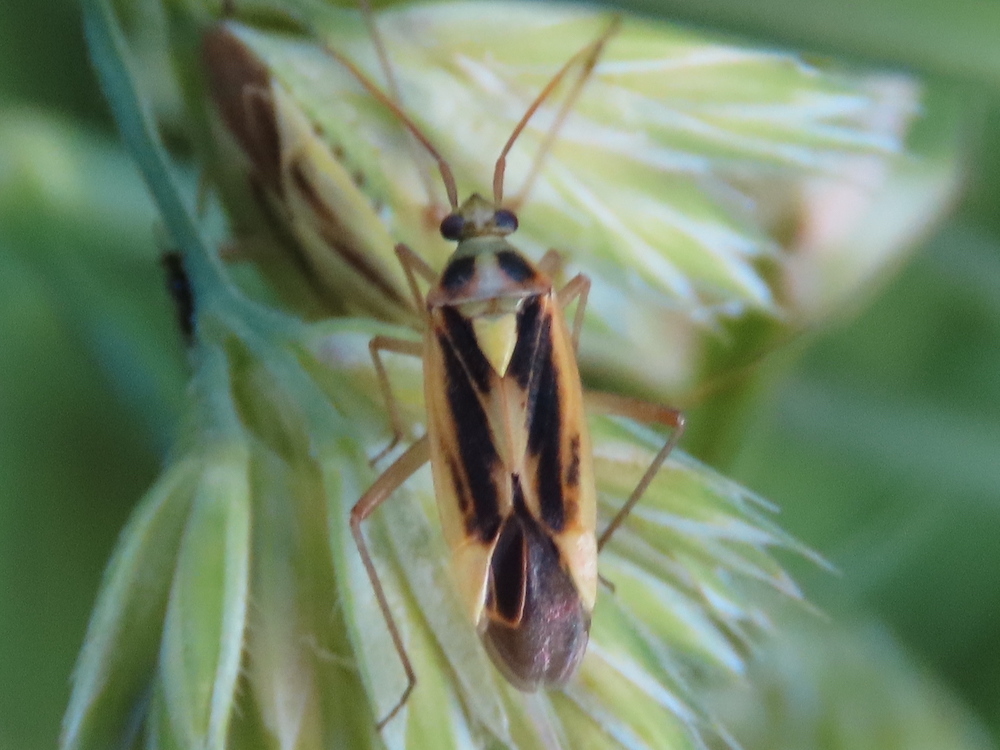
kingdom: Animalia
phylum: Arthropoda
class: Insecta
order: Hemiptera
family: Miridae
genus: Stenotus
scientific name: Stenotus binotatus
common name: Plant bug
